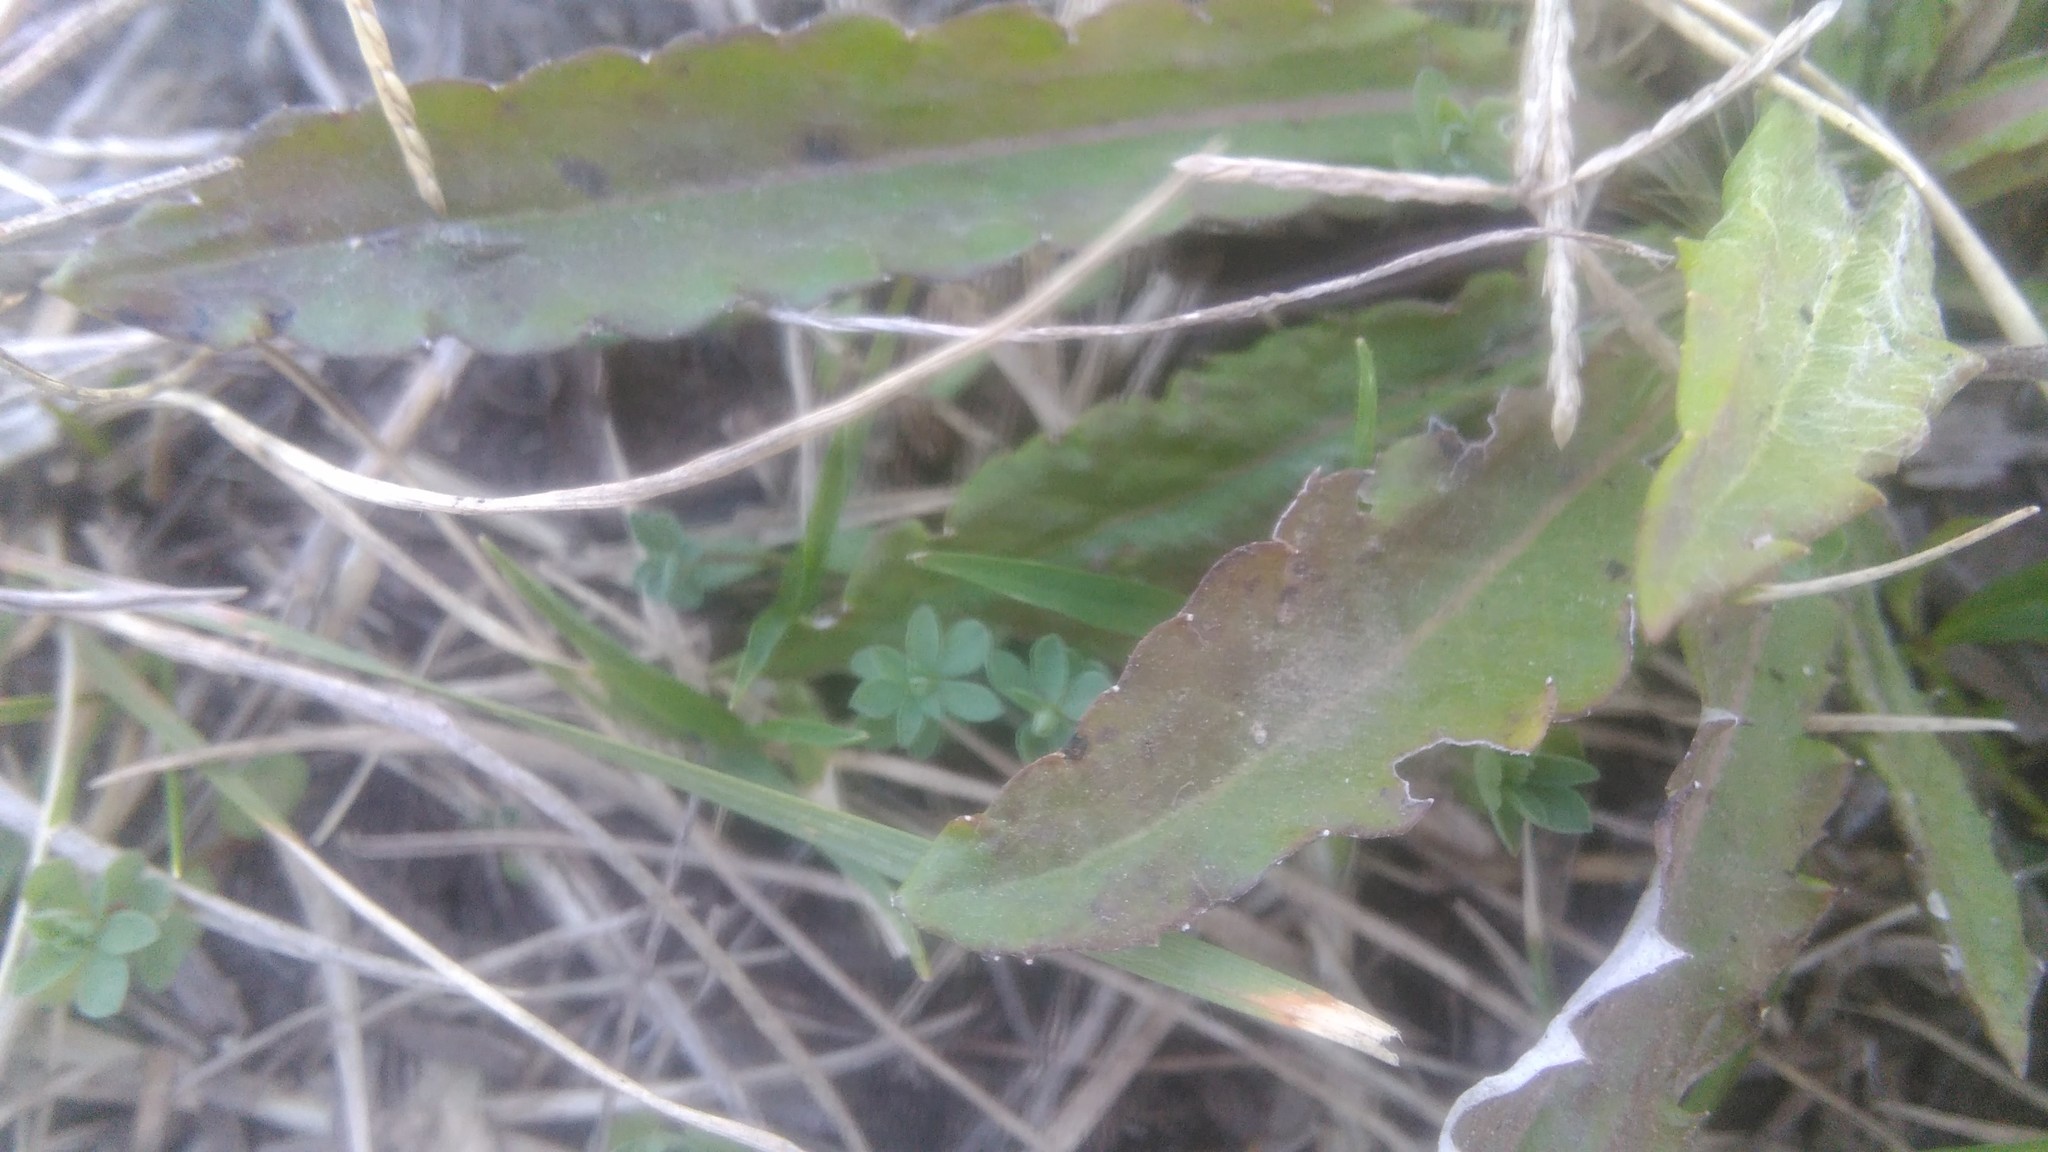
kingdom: Plantae
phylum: Tracheophyta
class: Magnoliopsida
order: Asterales
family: Asteraceae
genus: Chaptalia
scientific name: Chaptalia runcinata
